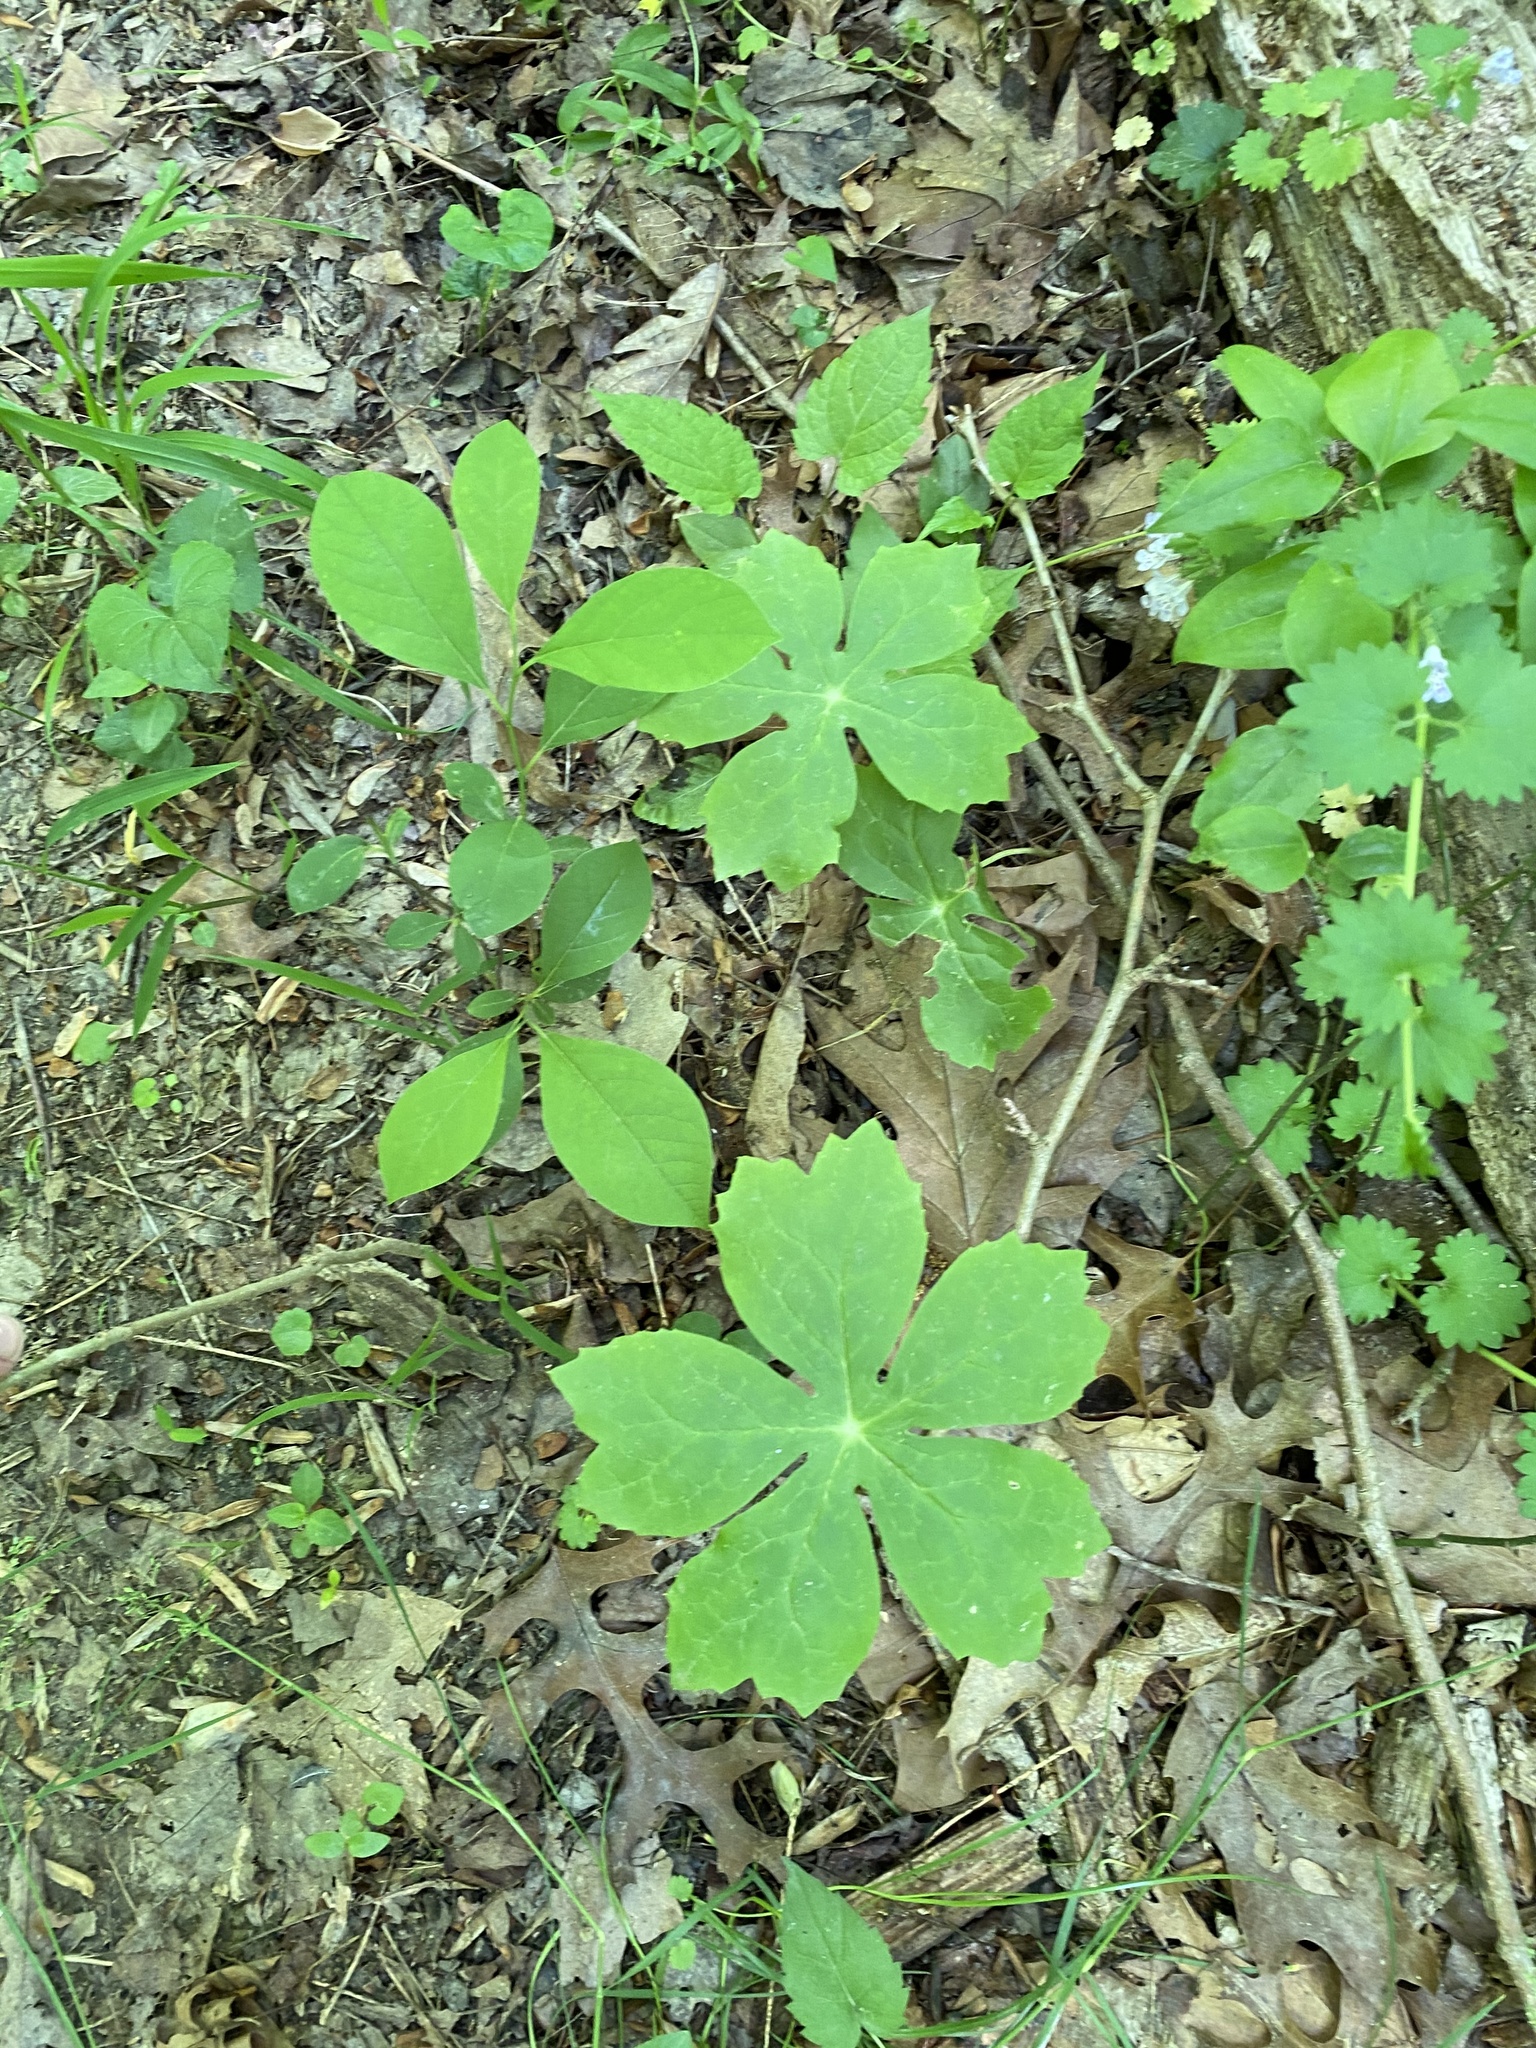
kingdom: Plantae
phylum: Tracheophyta
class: Magnoliopsida
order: Ranunculales
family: Berberidaceae
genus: Podophyllum
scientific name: Podophyllum peltatum
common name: Wild mandrake
